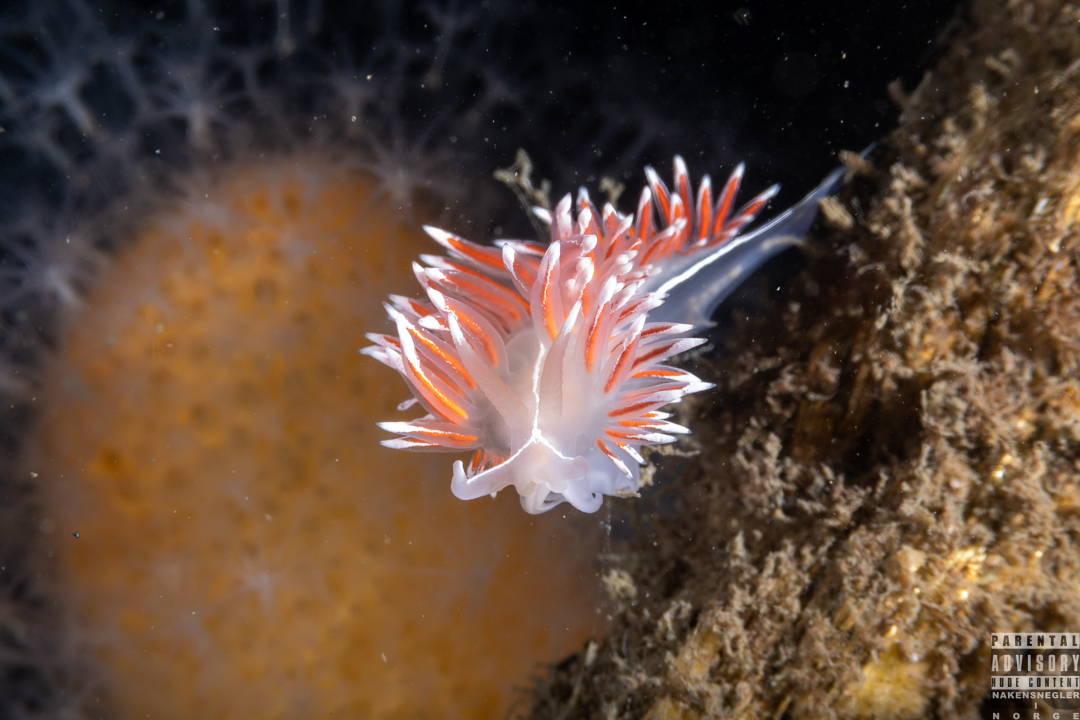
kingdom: Animalia
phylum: Mollusca
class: Gastropoda
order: Nudibranchia
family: Coryphellidae
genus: Coryphella
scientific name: Coryphella lineata
